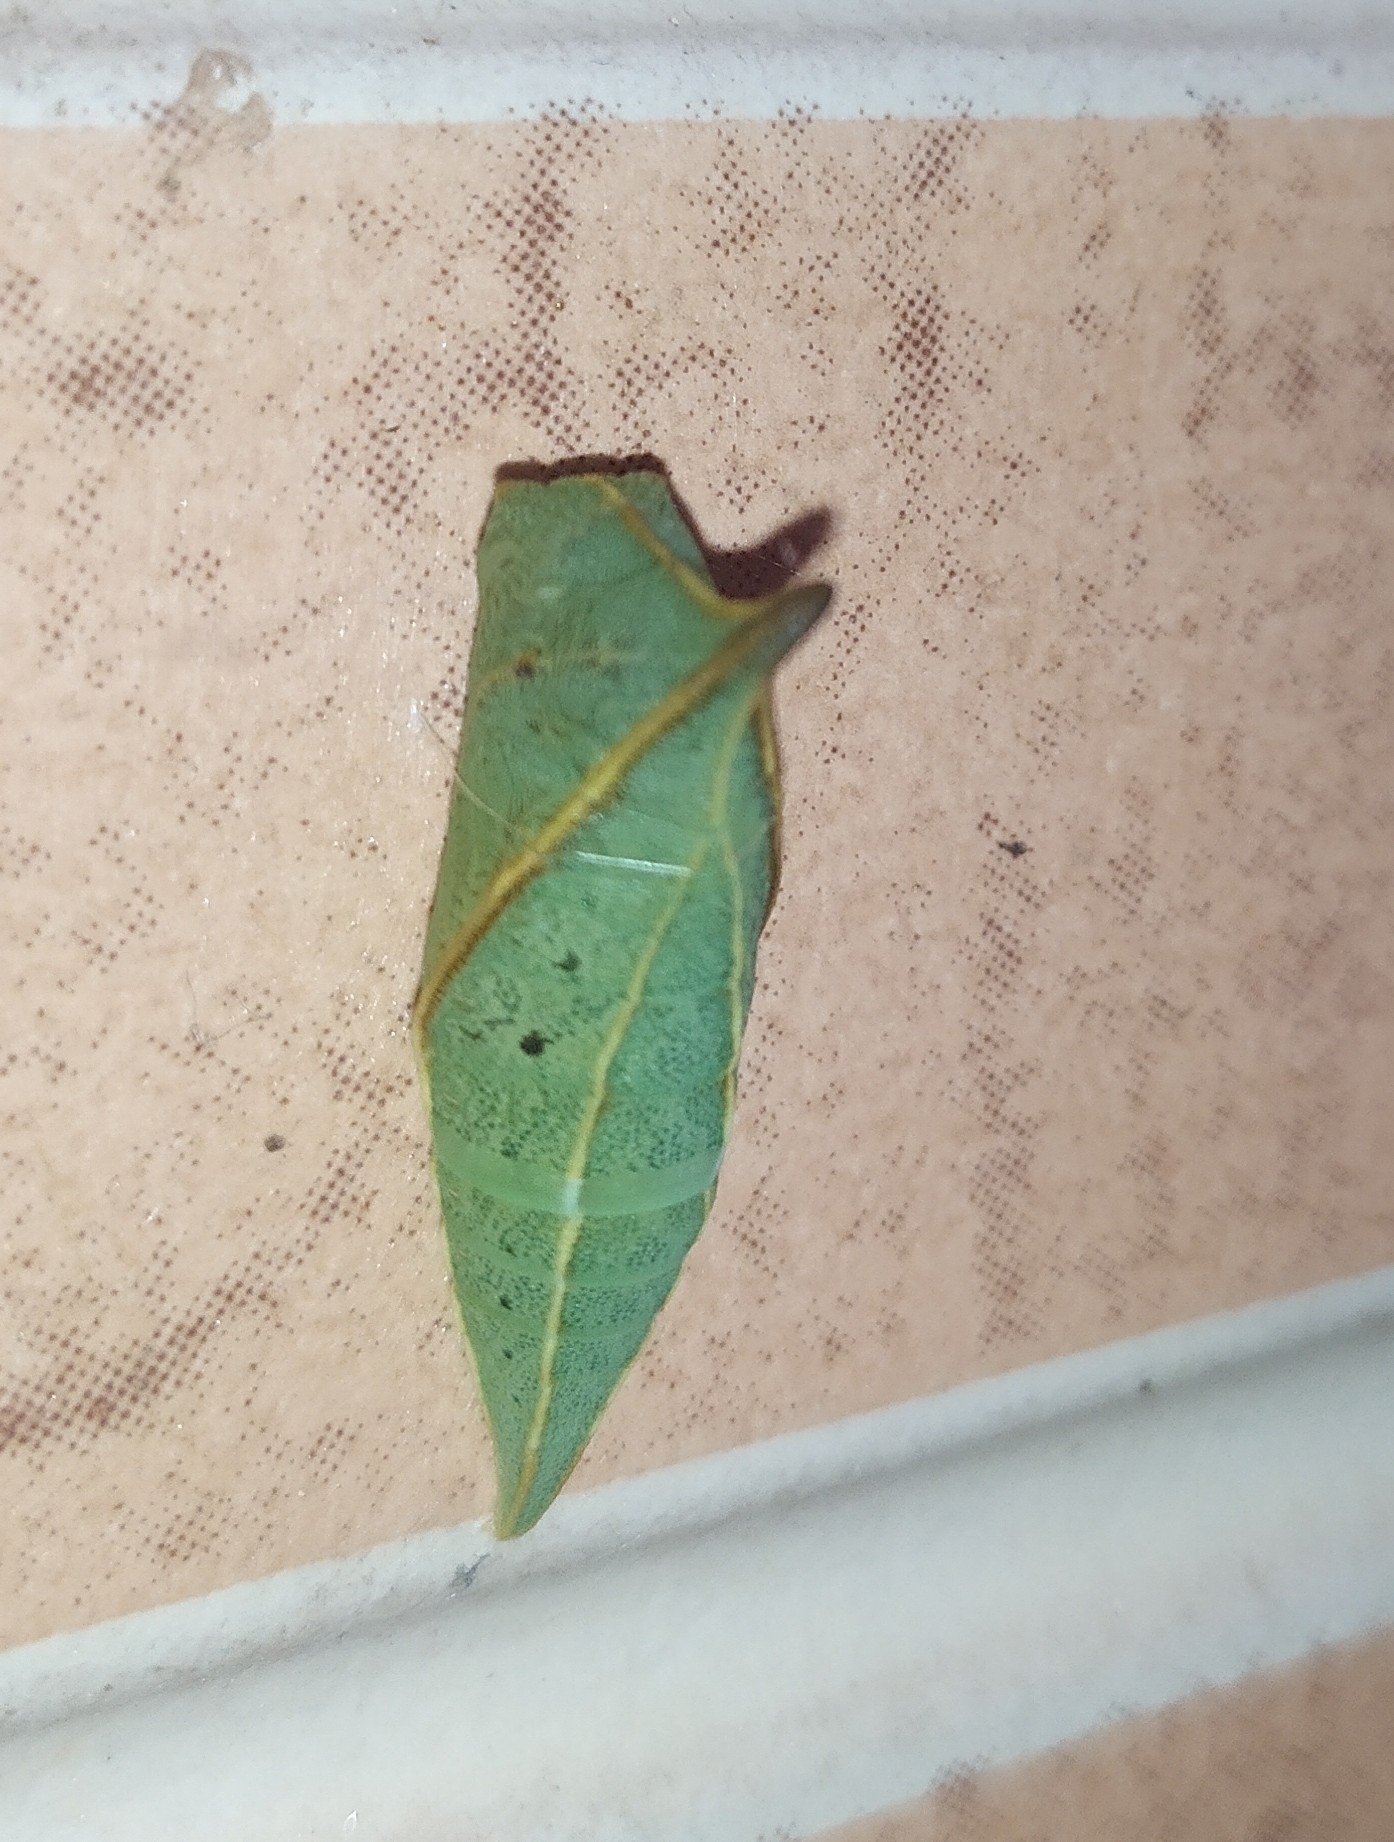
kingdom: Animalia
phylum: Arthropoda
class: Insecta
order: Lepidoptera
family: Papilionidae
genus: Graphium
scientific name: Graphium doson
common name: Common jay
